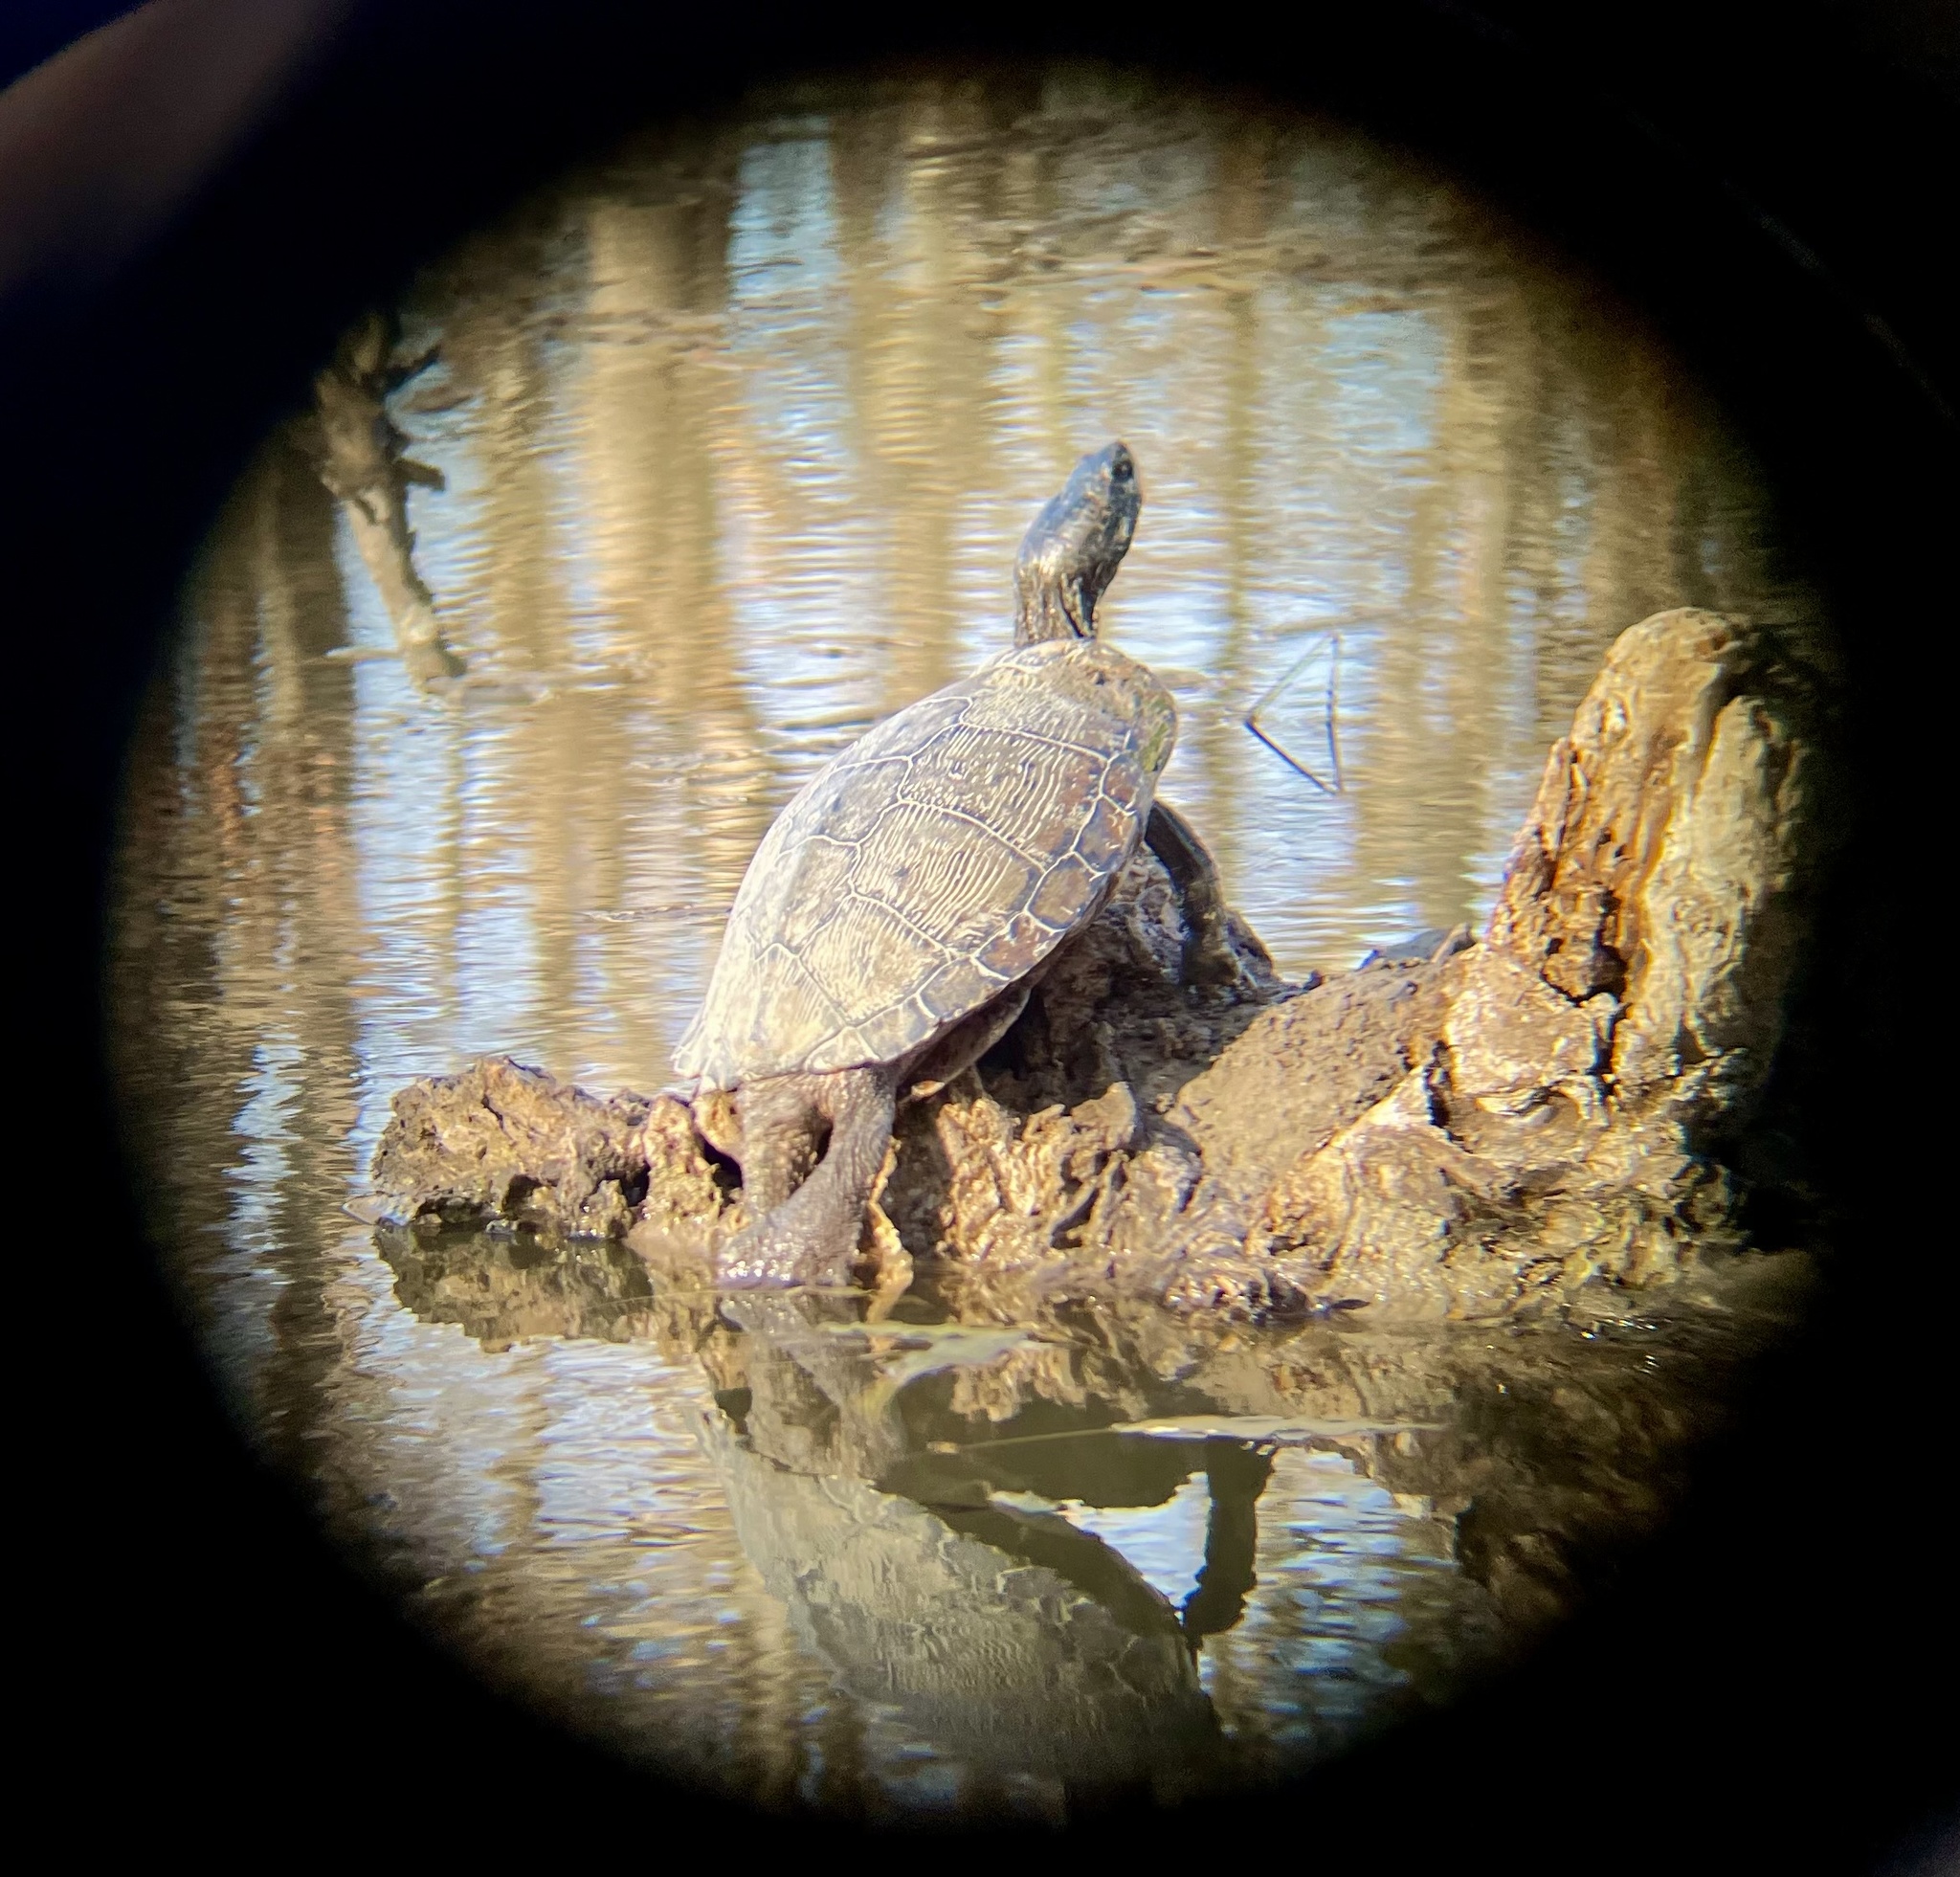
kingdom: Animalia
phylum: Chordata
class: Testudines
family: Emydidae
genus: Trachemys
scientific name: Trachemys scripta
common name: Slider
